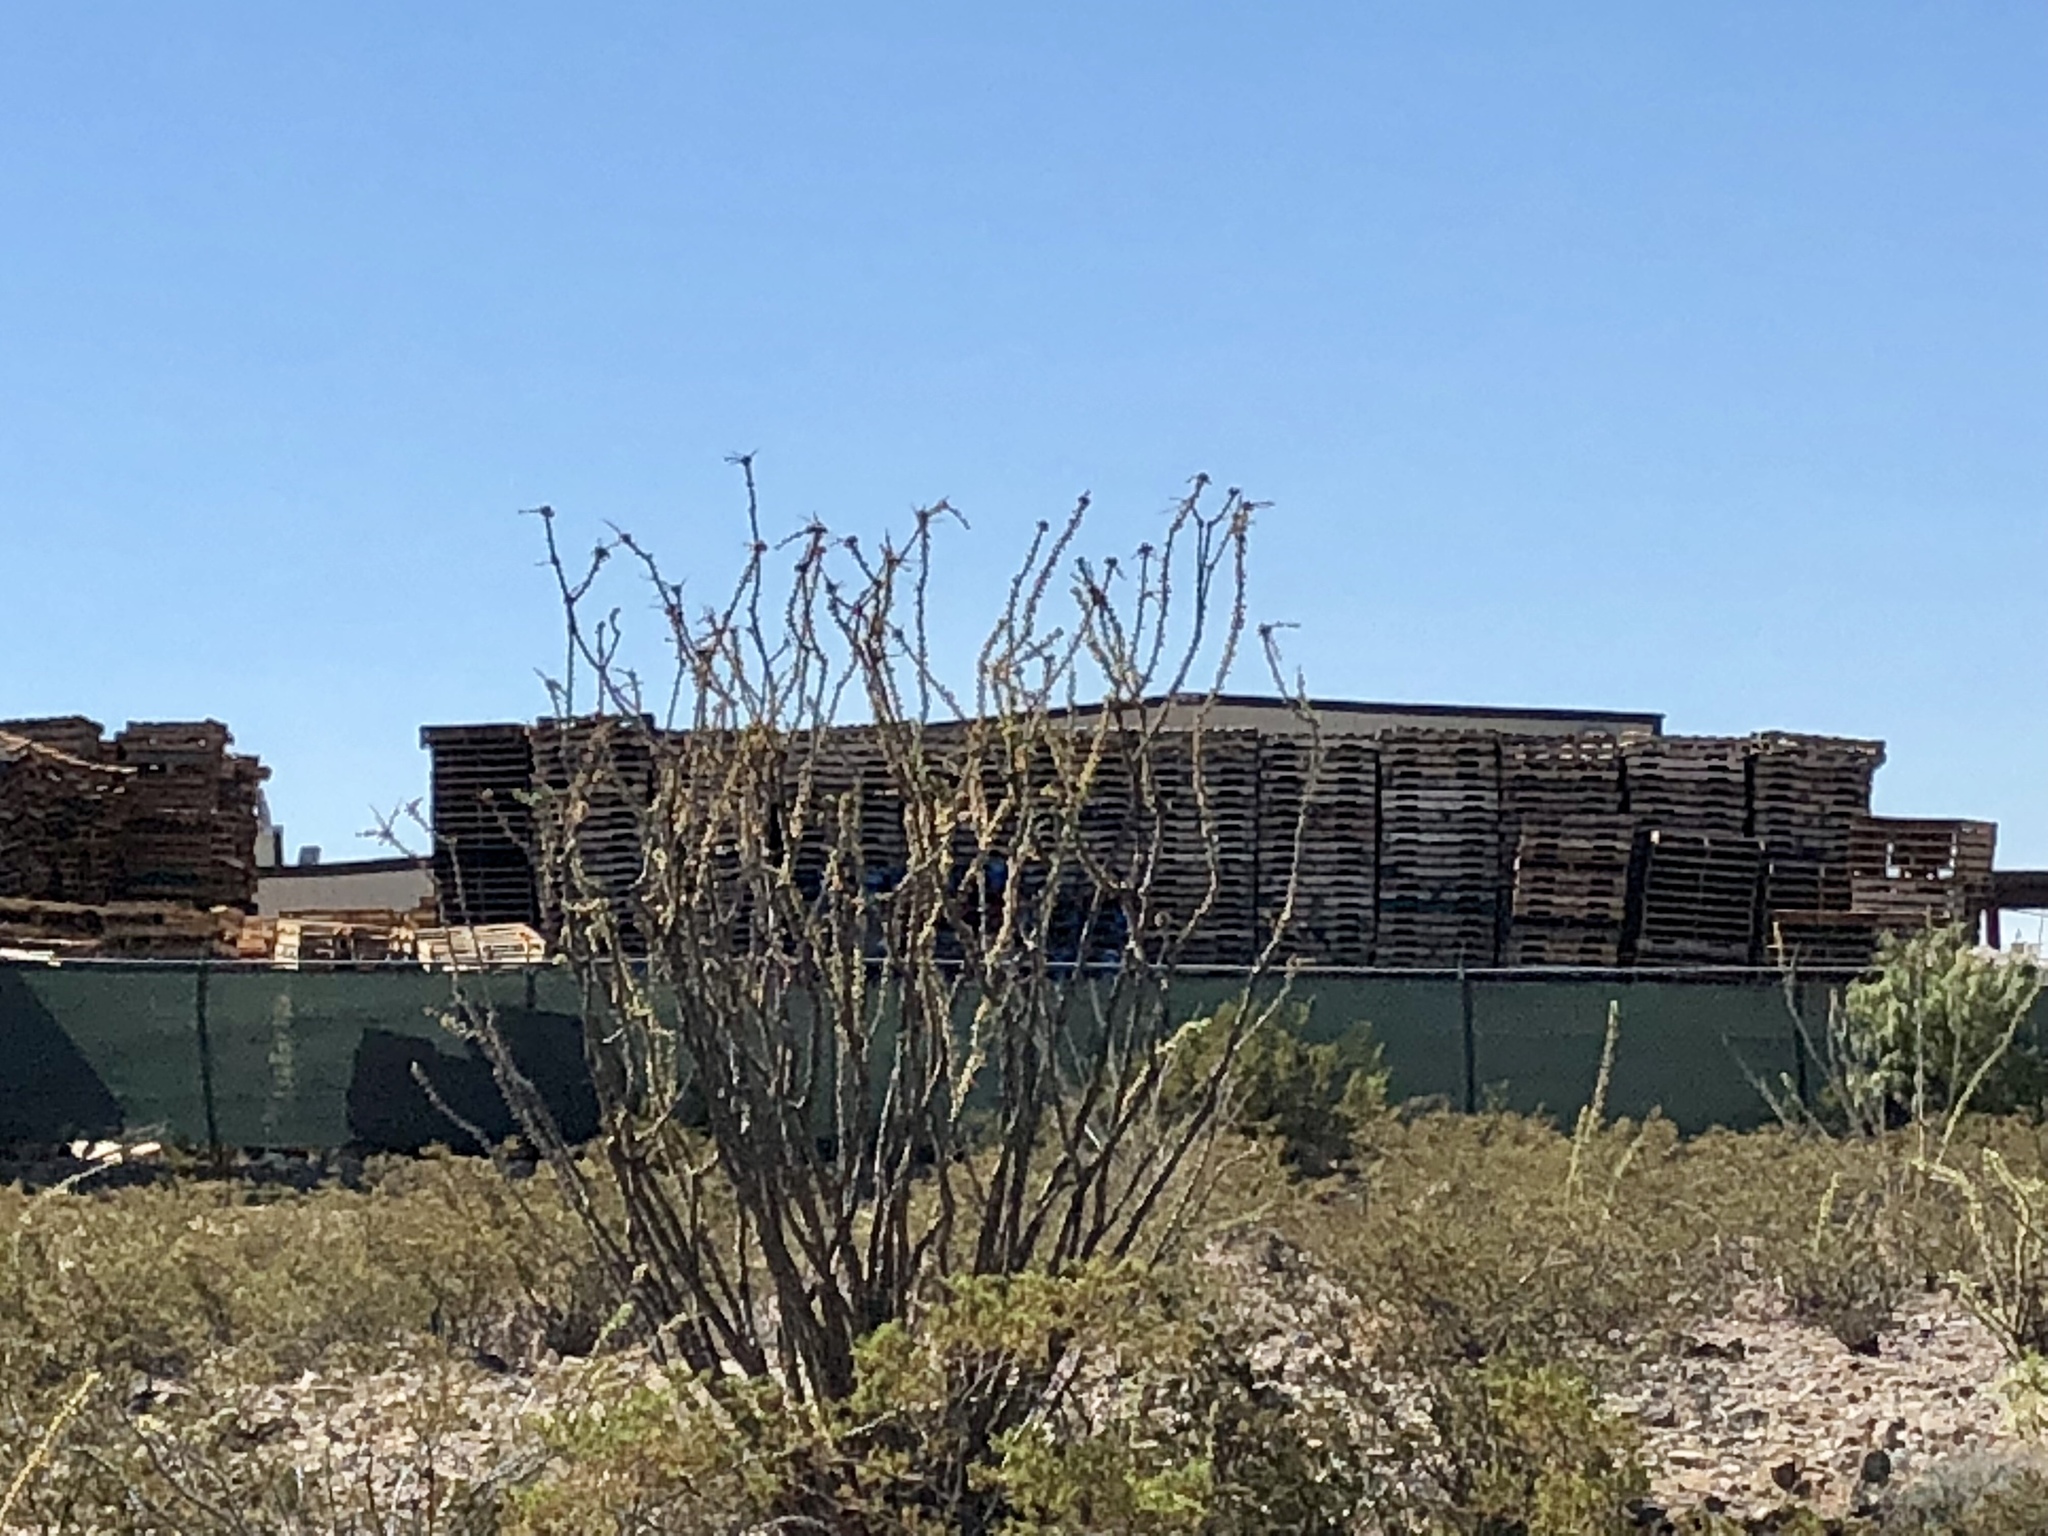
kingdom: Plantae
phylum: Tracheophyta
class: Magnoliopsida
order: Ericales
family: Fouquieriaceae
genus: Fouquieria
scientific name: Fouquieria splendens
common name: Vine-cactus
